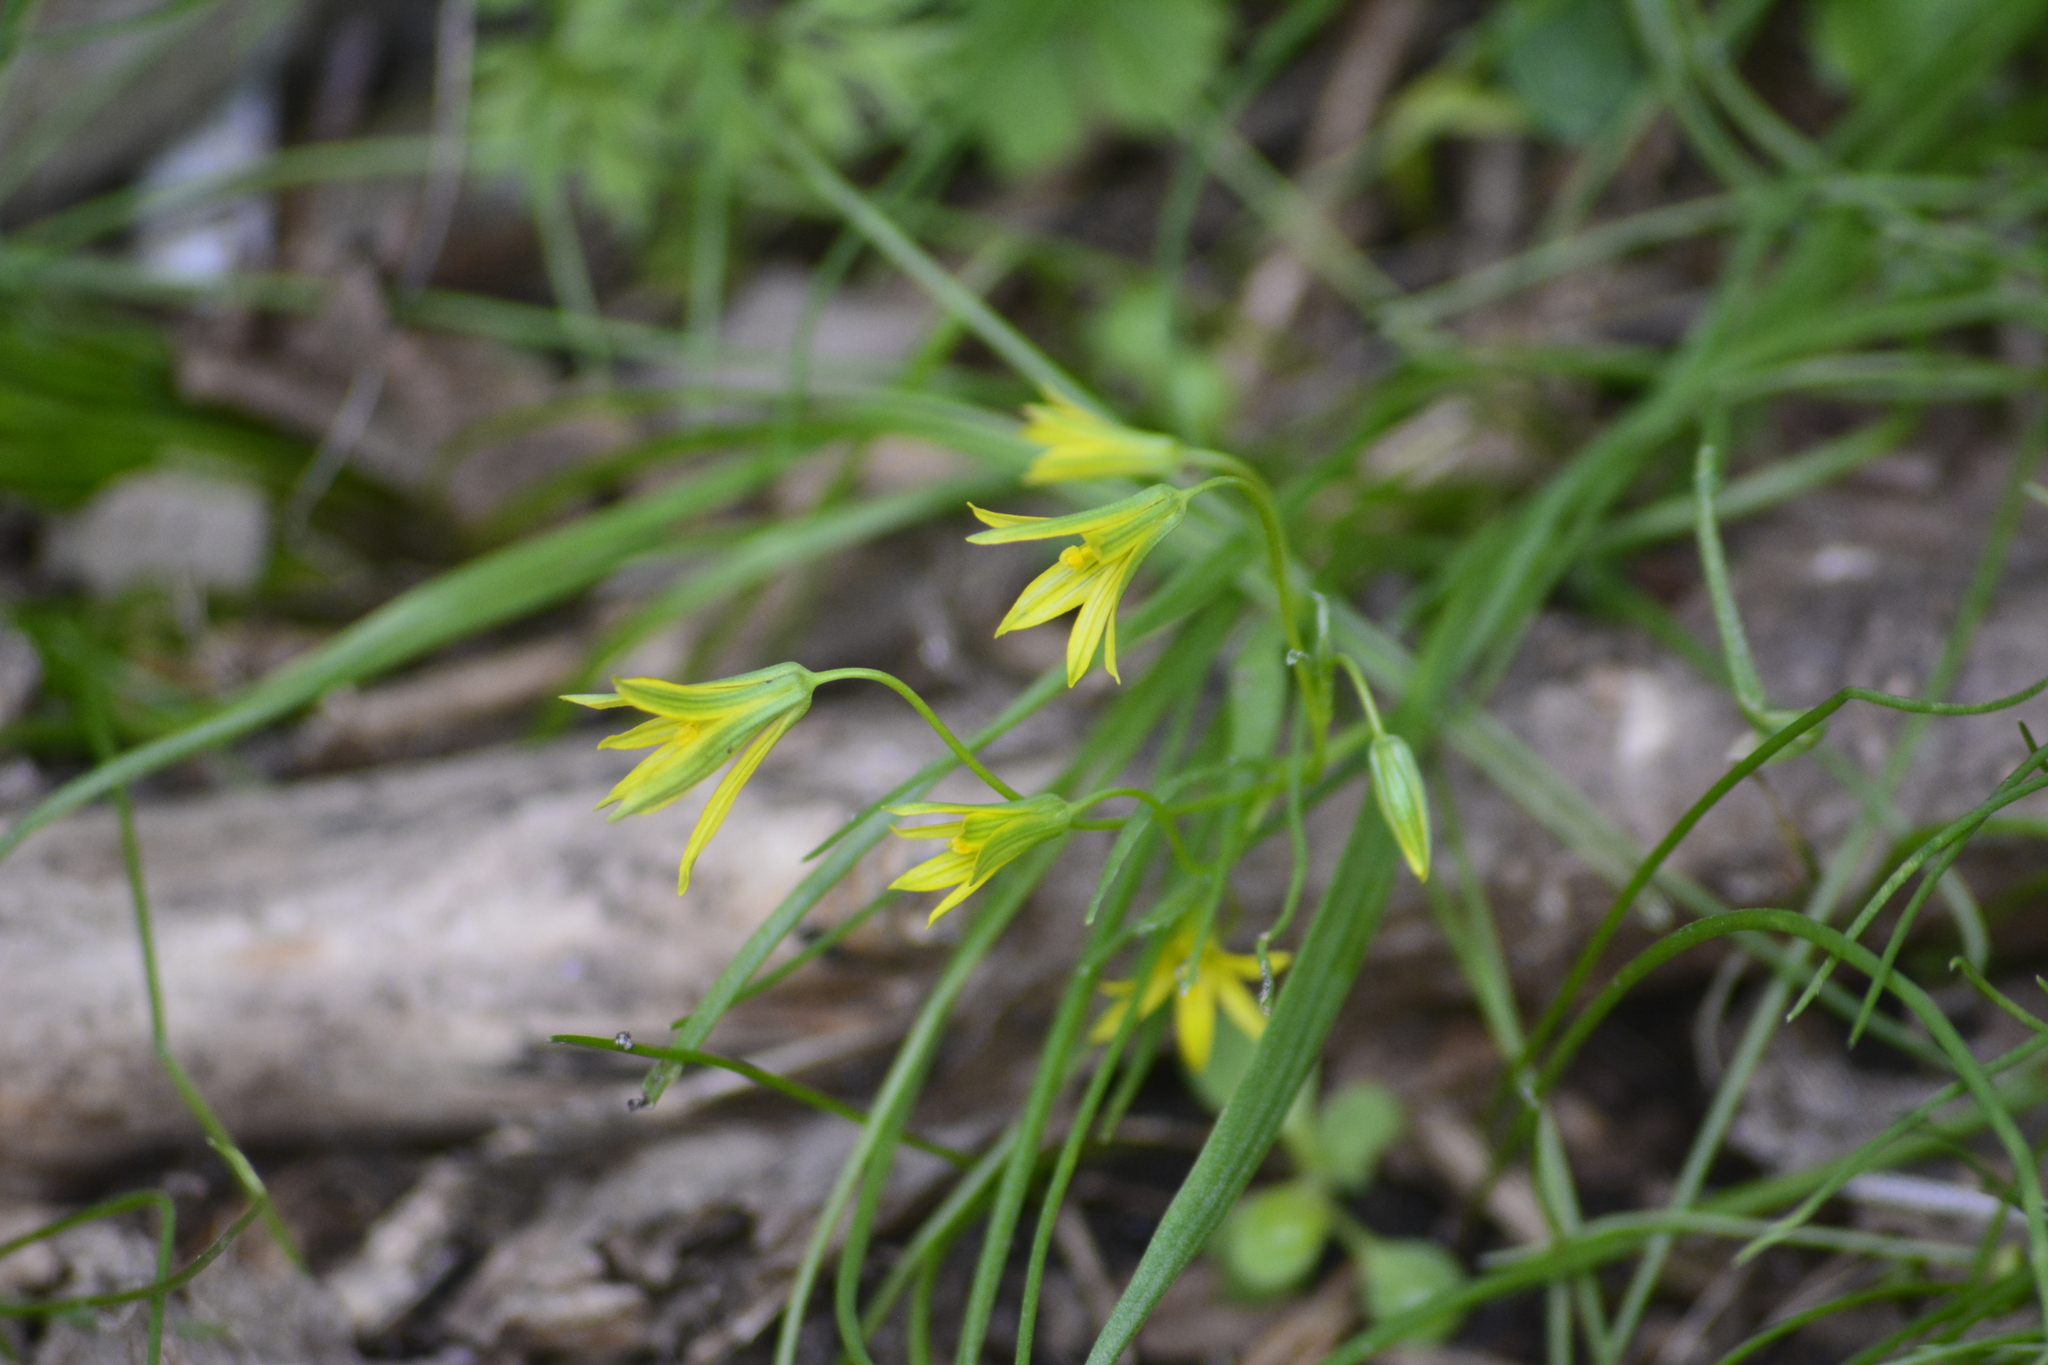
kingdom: Plantae
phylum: Tracheophyta
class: Liliopsida
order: Liliales
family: Liliaceae
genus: Gagea
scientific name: Gagea minima
